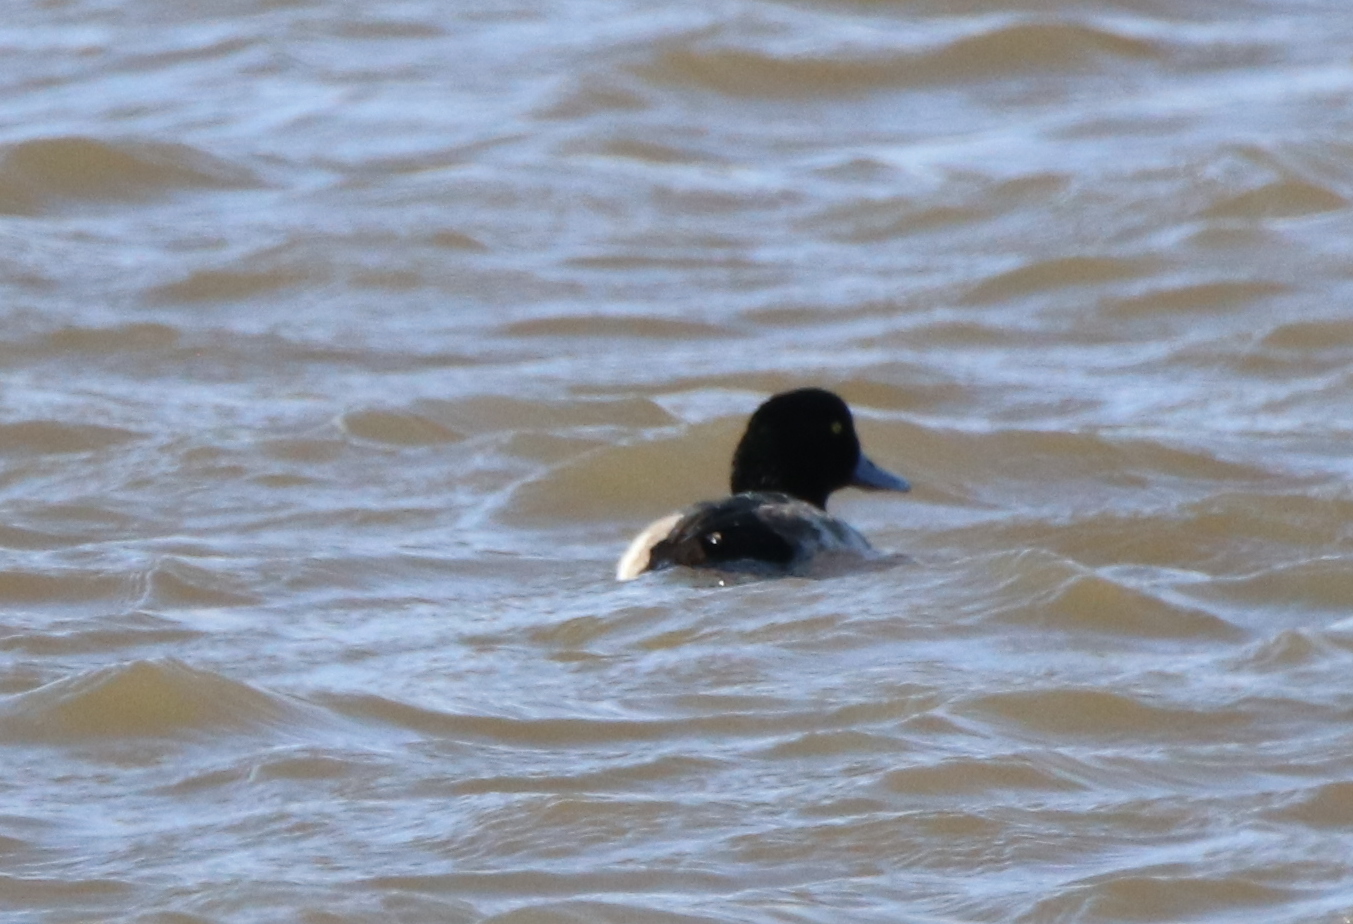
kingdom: Animalia
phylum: Chordata
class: Aves
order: Anseriformes
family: Anatidae
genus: Aythya
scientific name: Aythya marila
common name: Greater scaup
